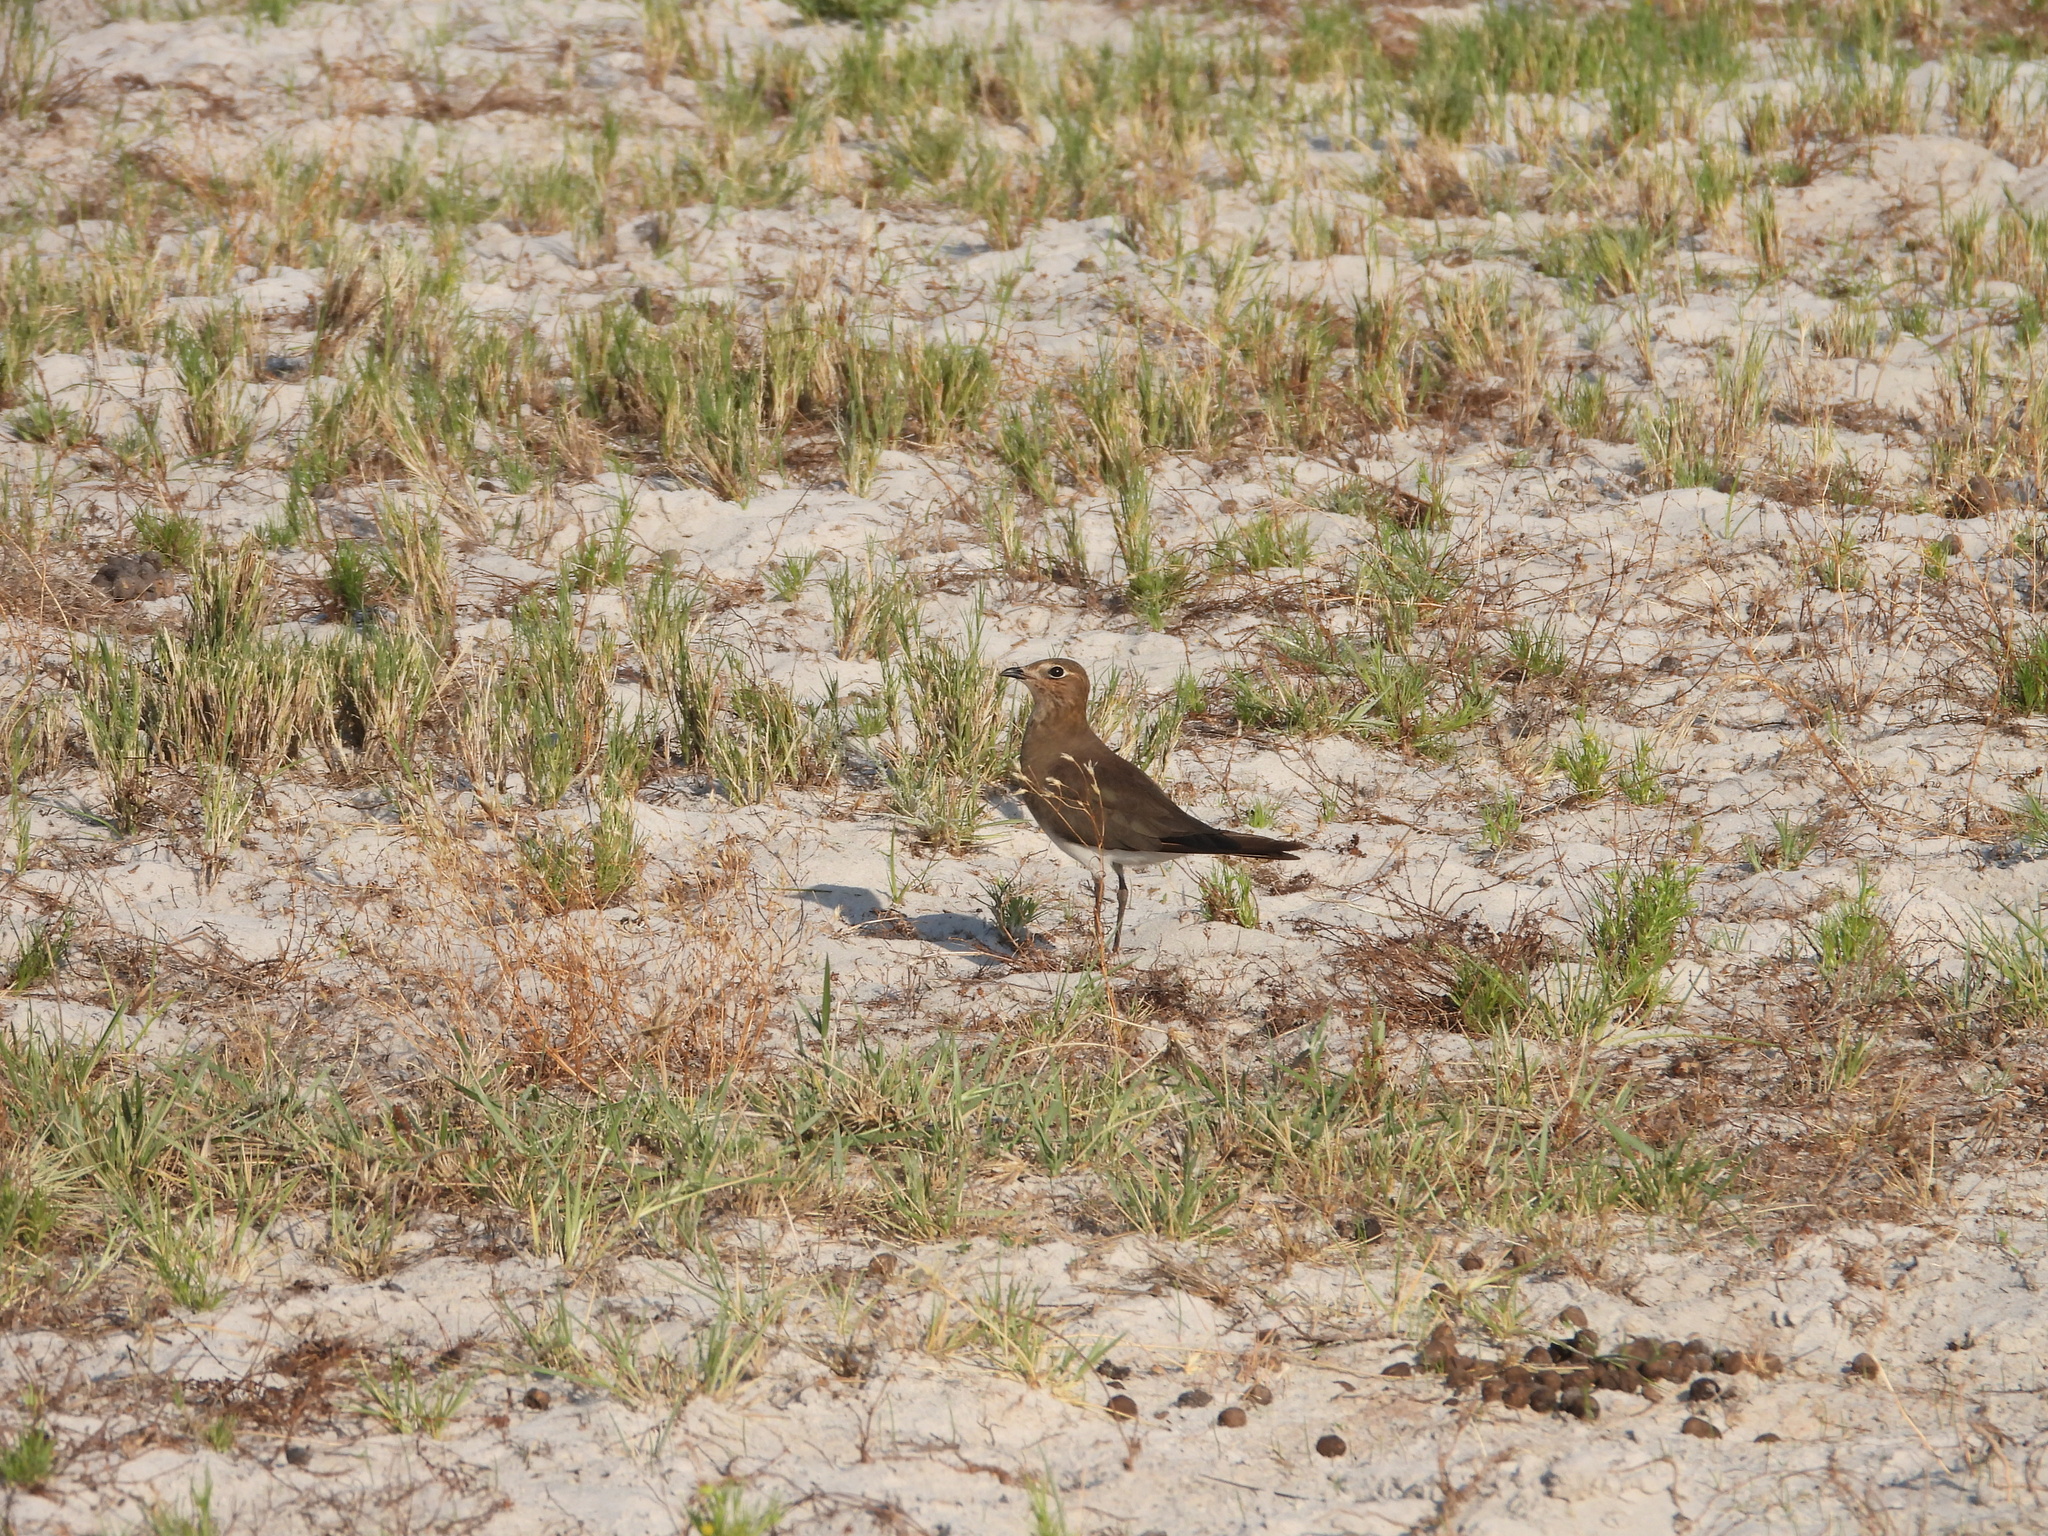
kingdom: Animalia
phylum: Chordata
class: Aves
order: Charadriiformes
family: Glareolidae
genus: Glareola
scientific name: Glareola pratincola
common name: Collared pratincole
